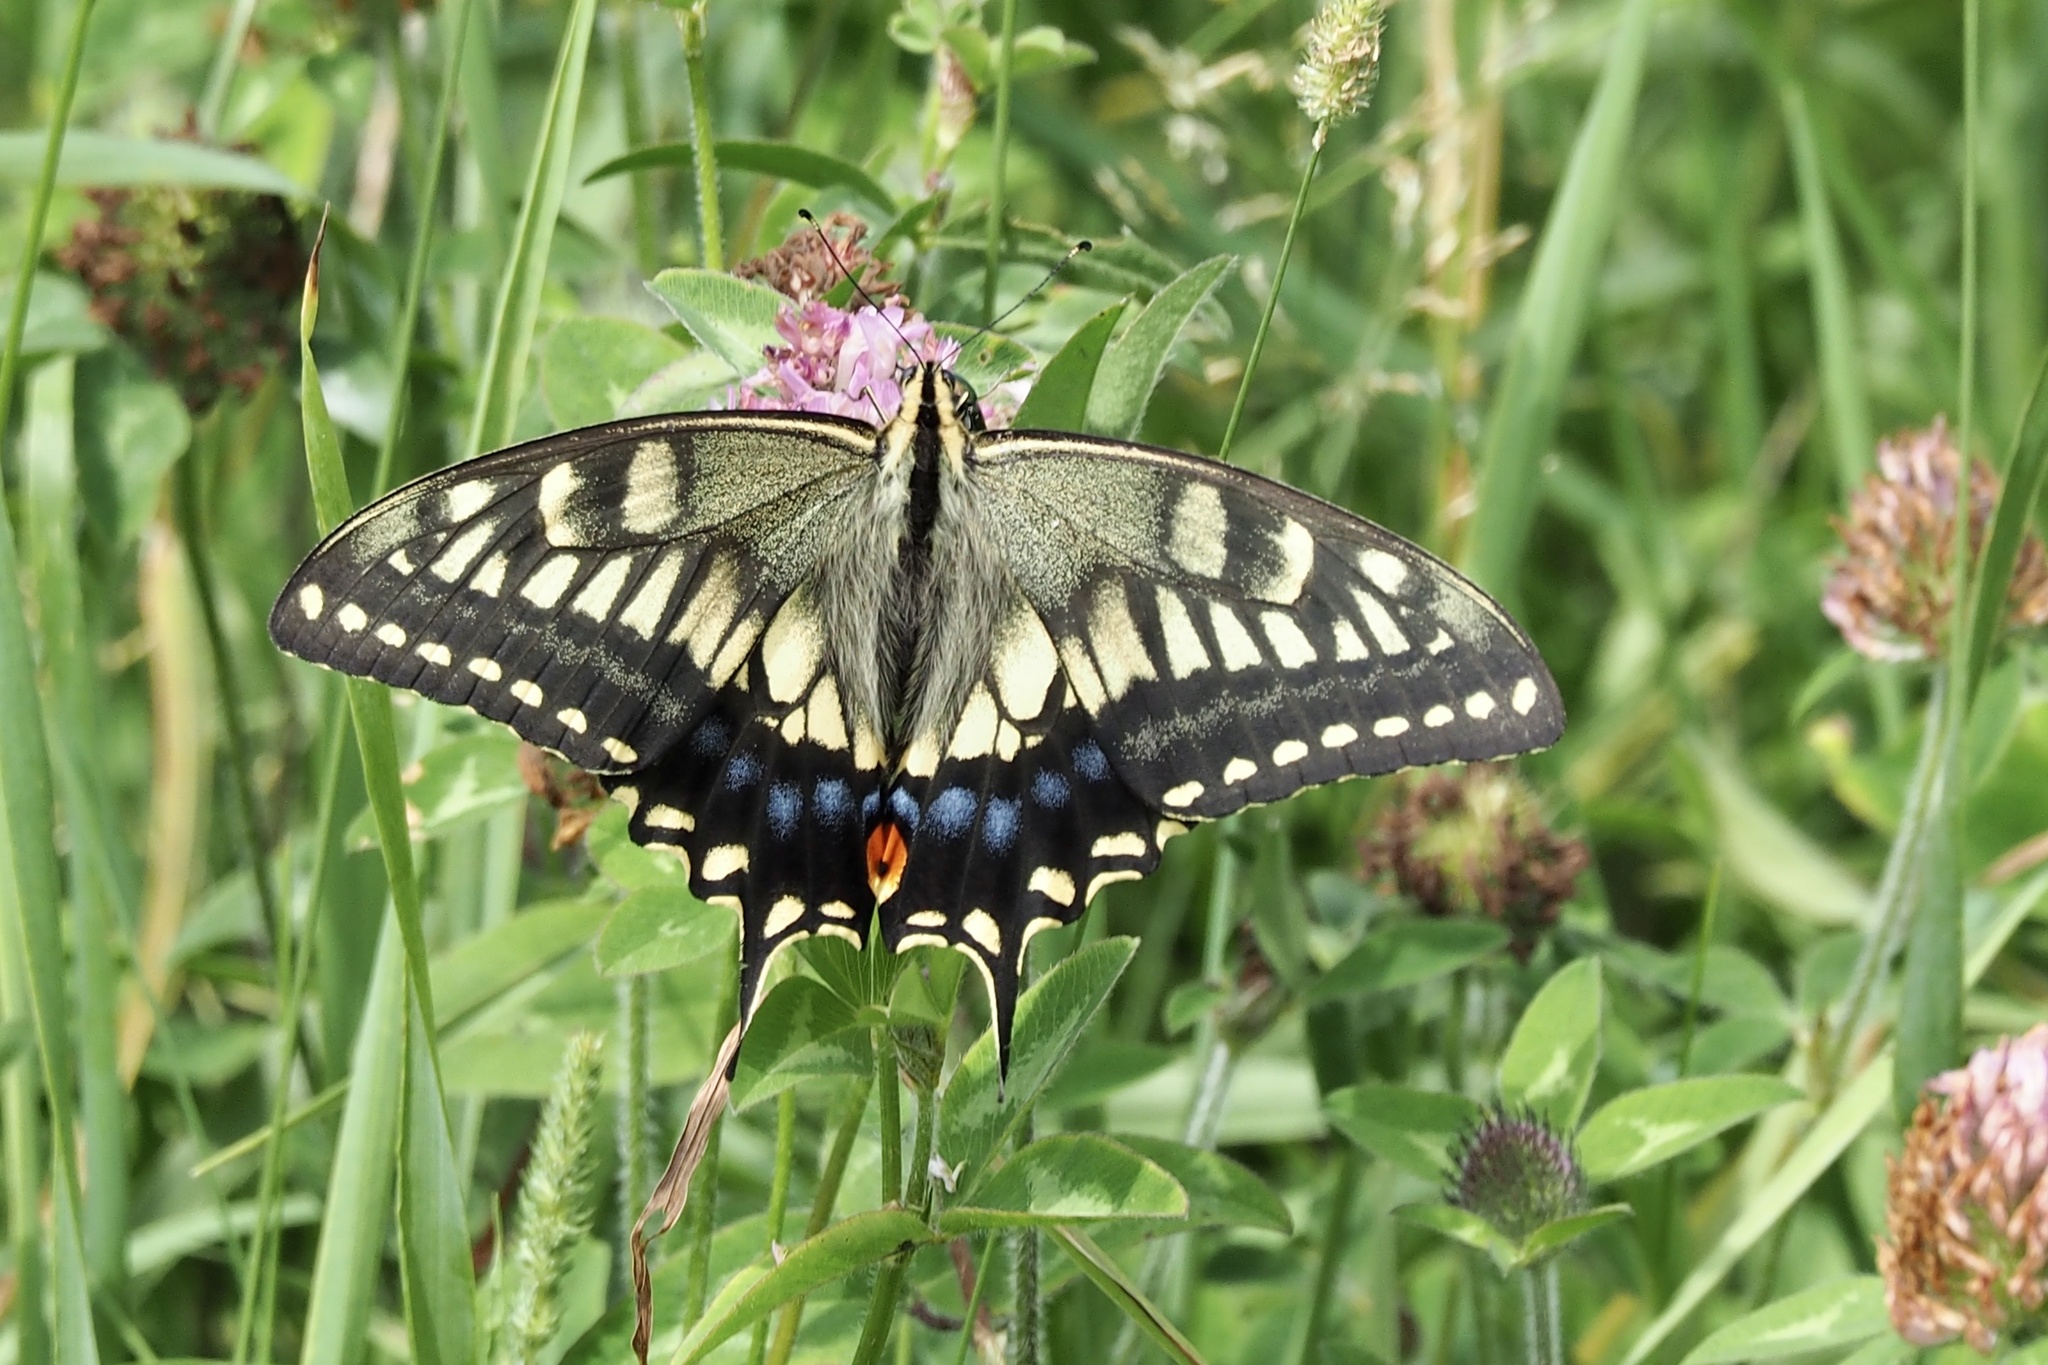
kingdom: Animalia
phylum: Arthropoda
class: Insecta
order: Lepidoptera
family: Papilionidae
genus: Papilio
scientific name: Papilio machaon
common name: Swallowtail
